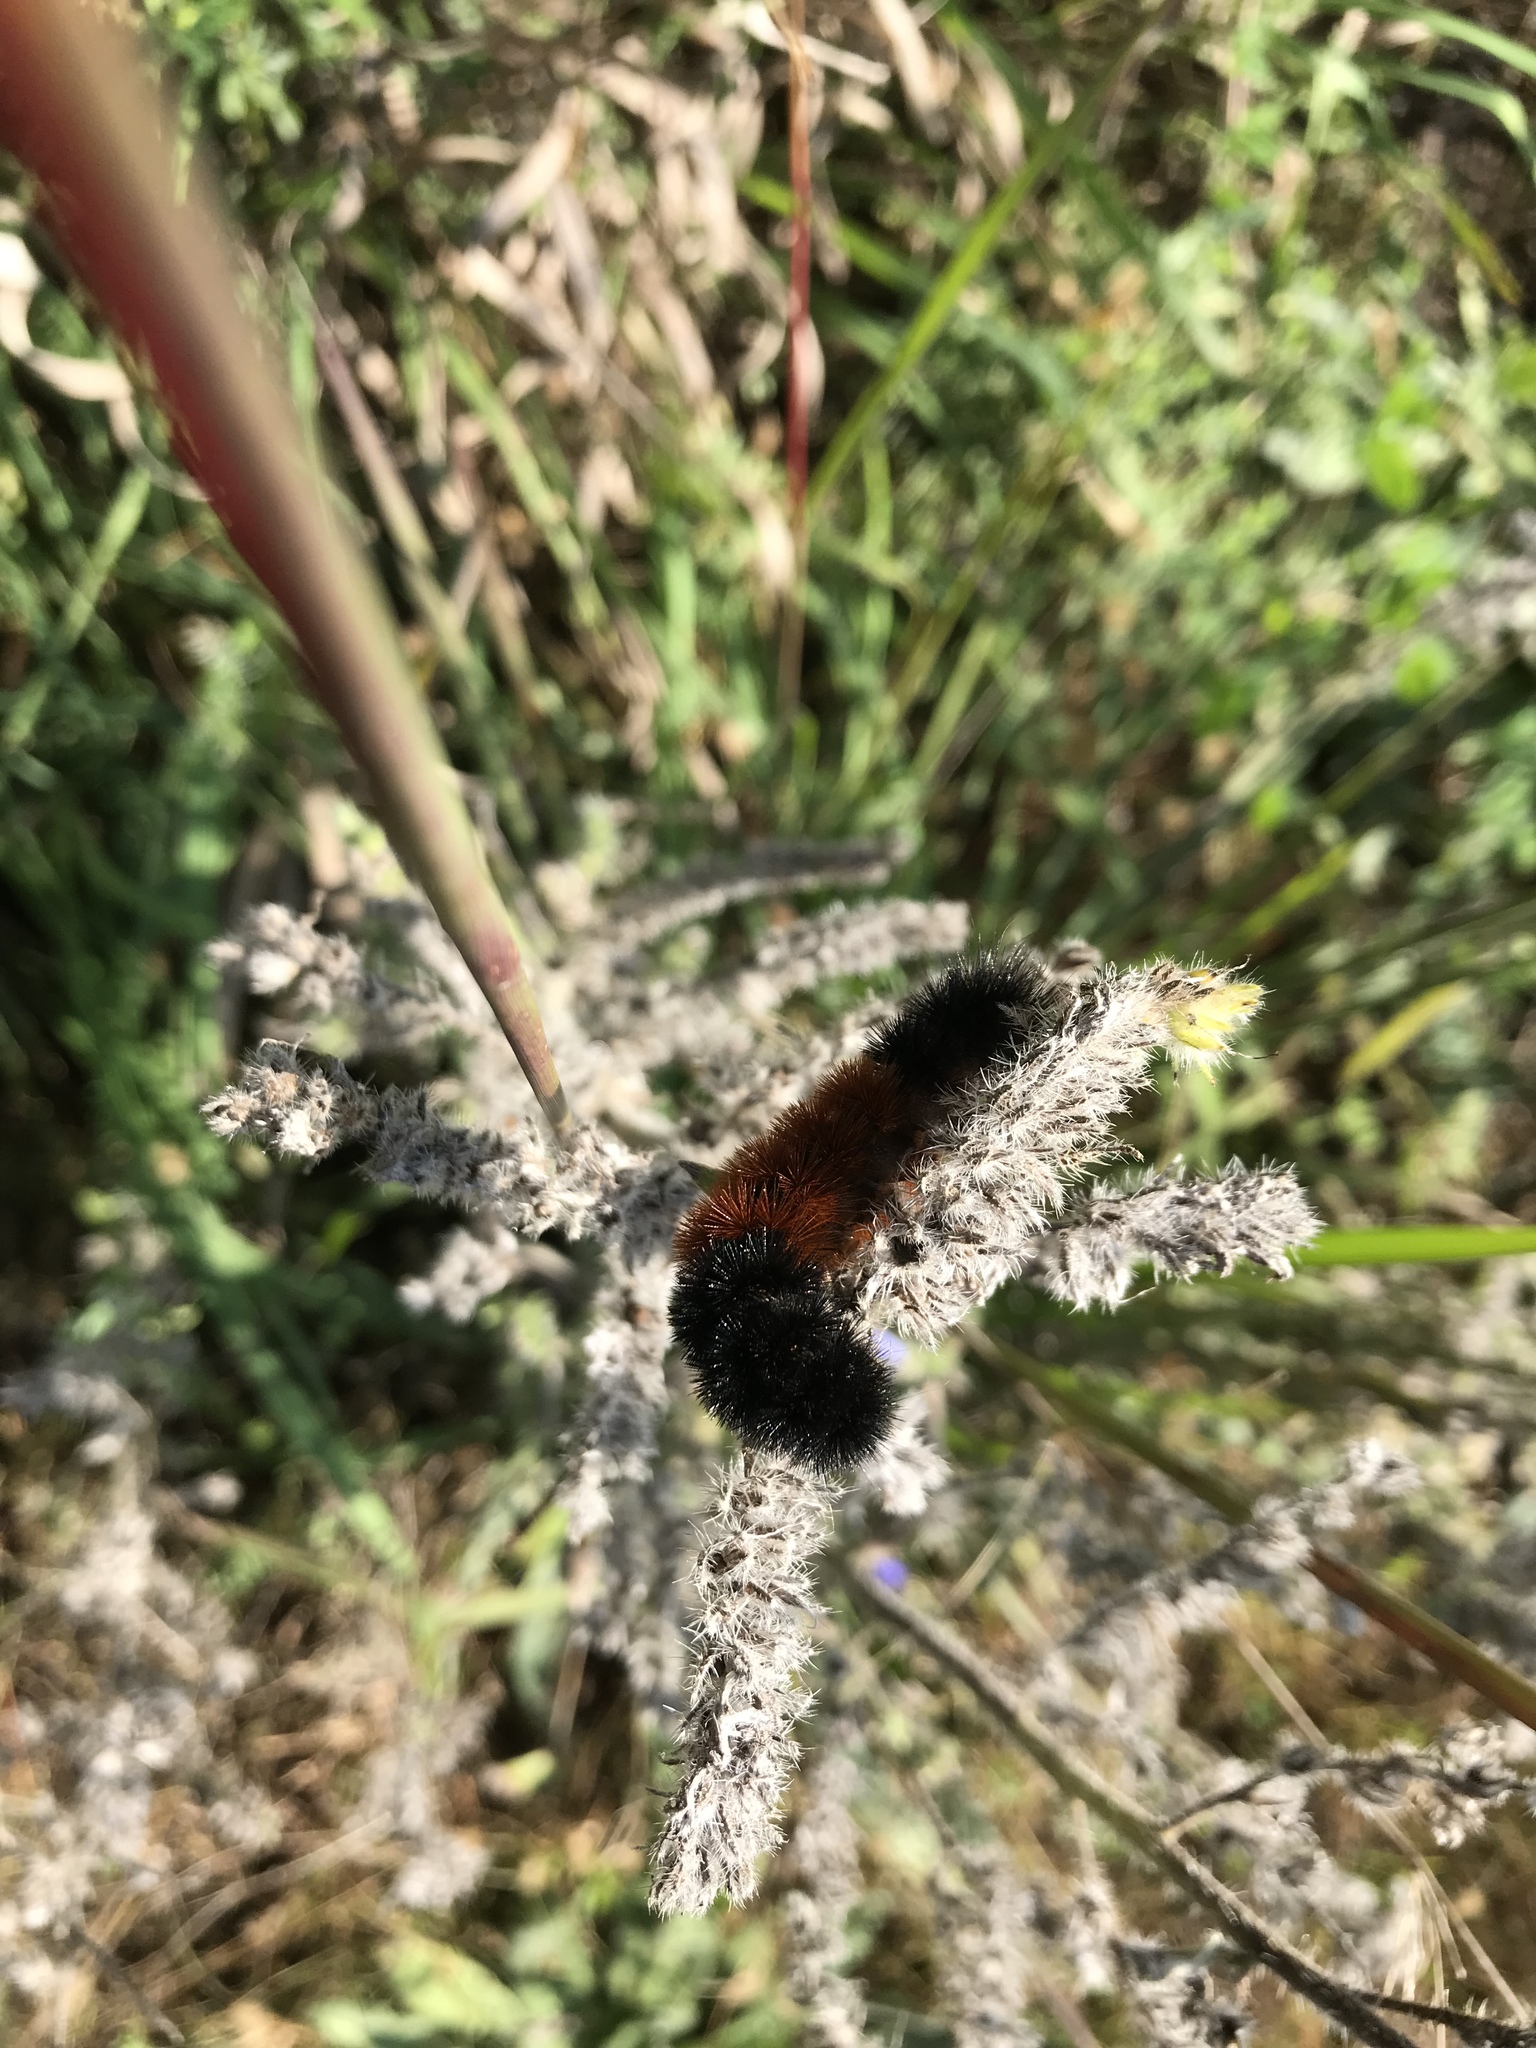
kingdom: Animalia
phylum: Arthropoda
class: Insecta
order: Lepidoptera
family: Erebidae
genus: Pyrrharctia
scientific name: Pyrrharctia isabella
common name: Isabella tiger moth
